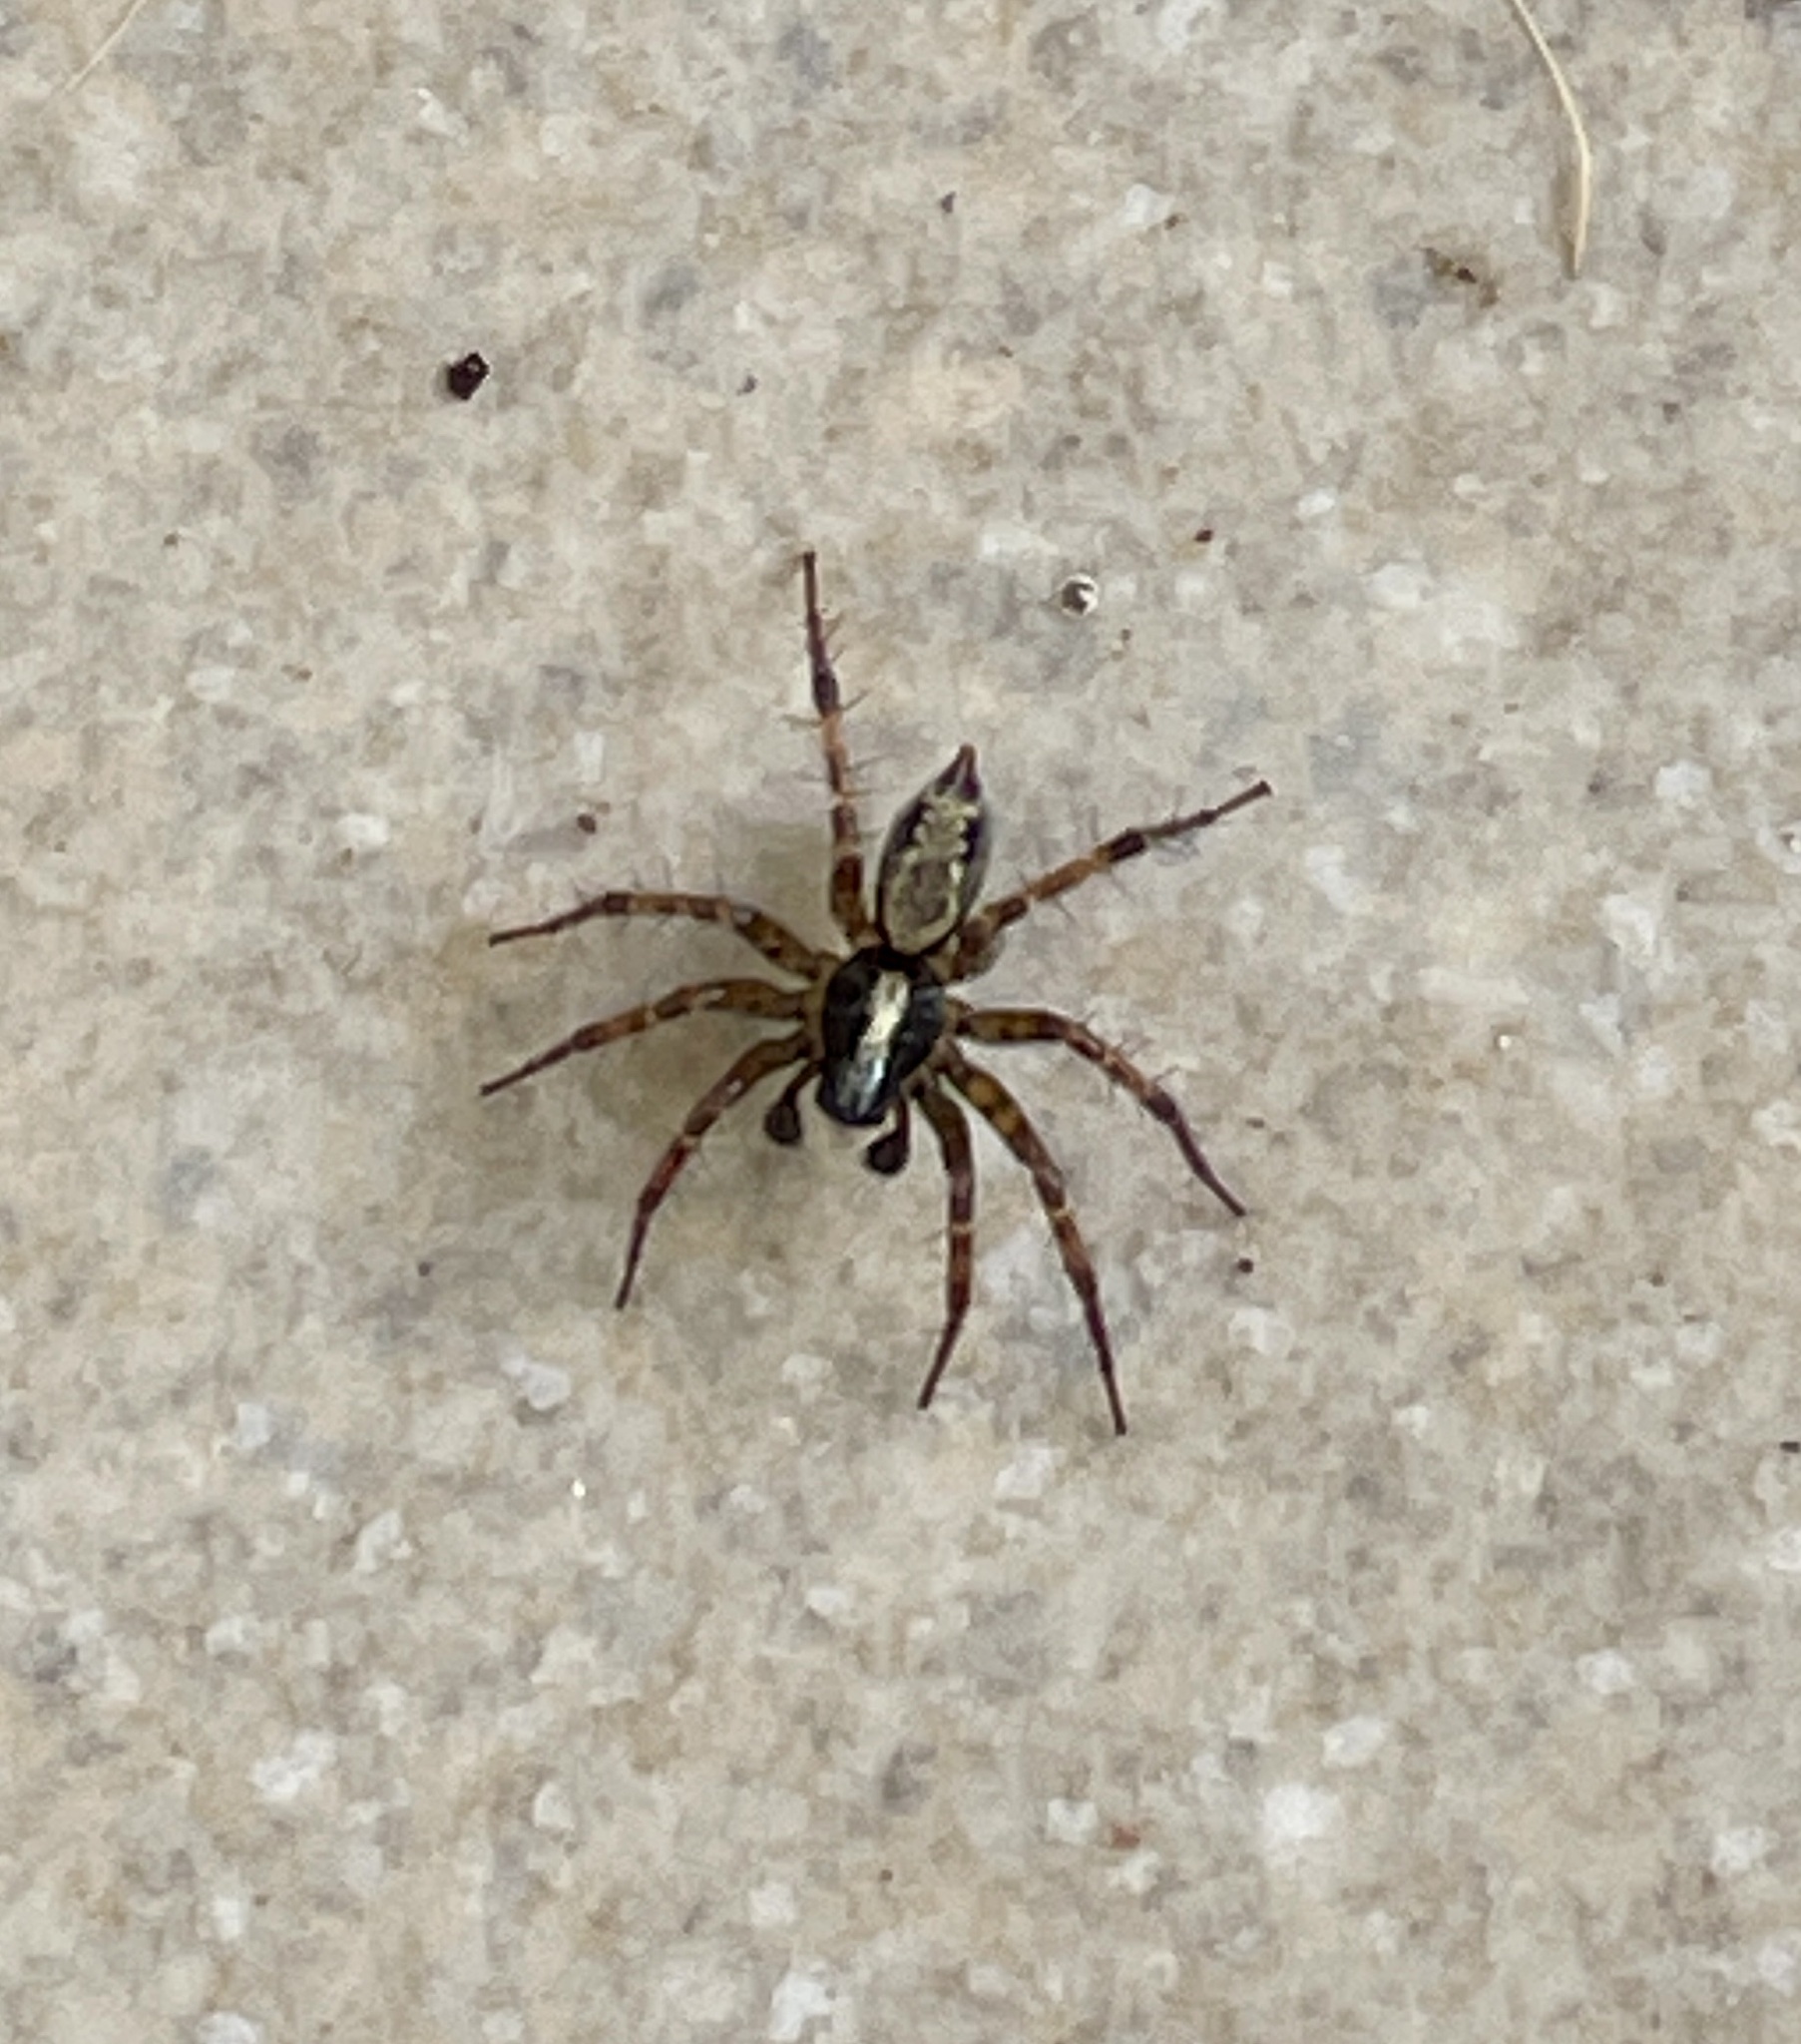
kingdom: Animalia
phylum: Arthropoda
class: Arachnida
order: Araneae
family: Agelenidae
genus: Textrix
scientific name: Textrix denticulata
